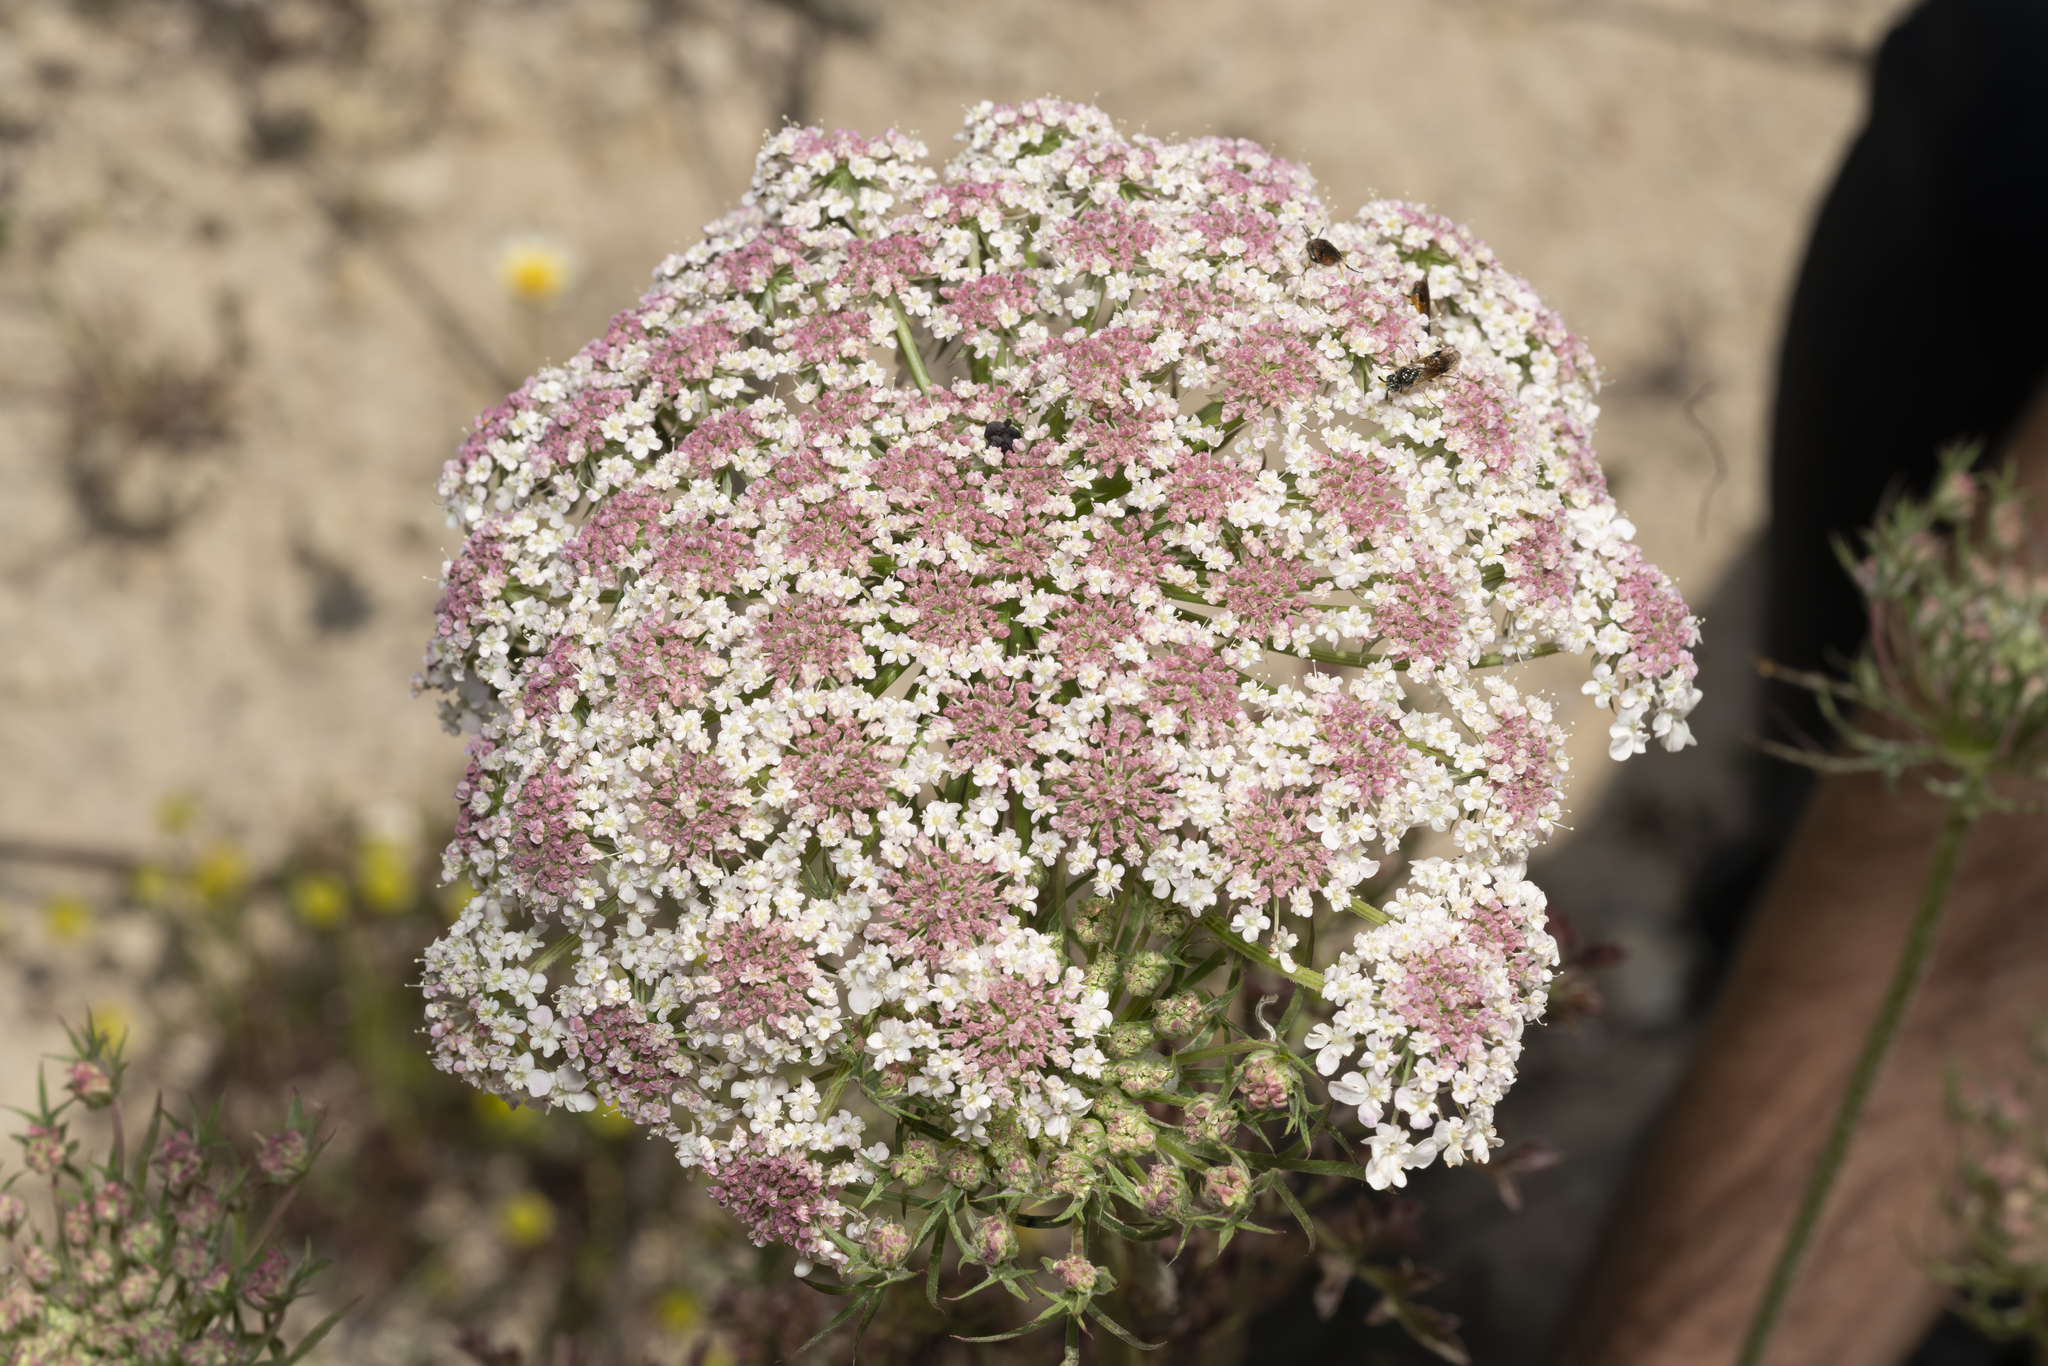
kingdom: Plantae
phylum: Tracheophyta
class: Magnoliopsida
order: Apiales
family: Apiaceae
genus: Daucus
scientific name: Daucus carota
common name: Wild carrot
